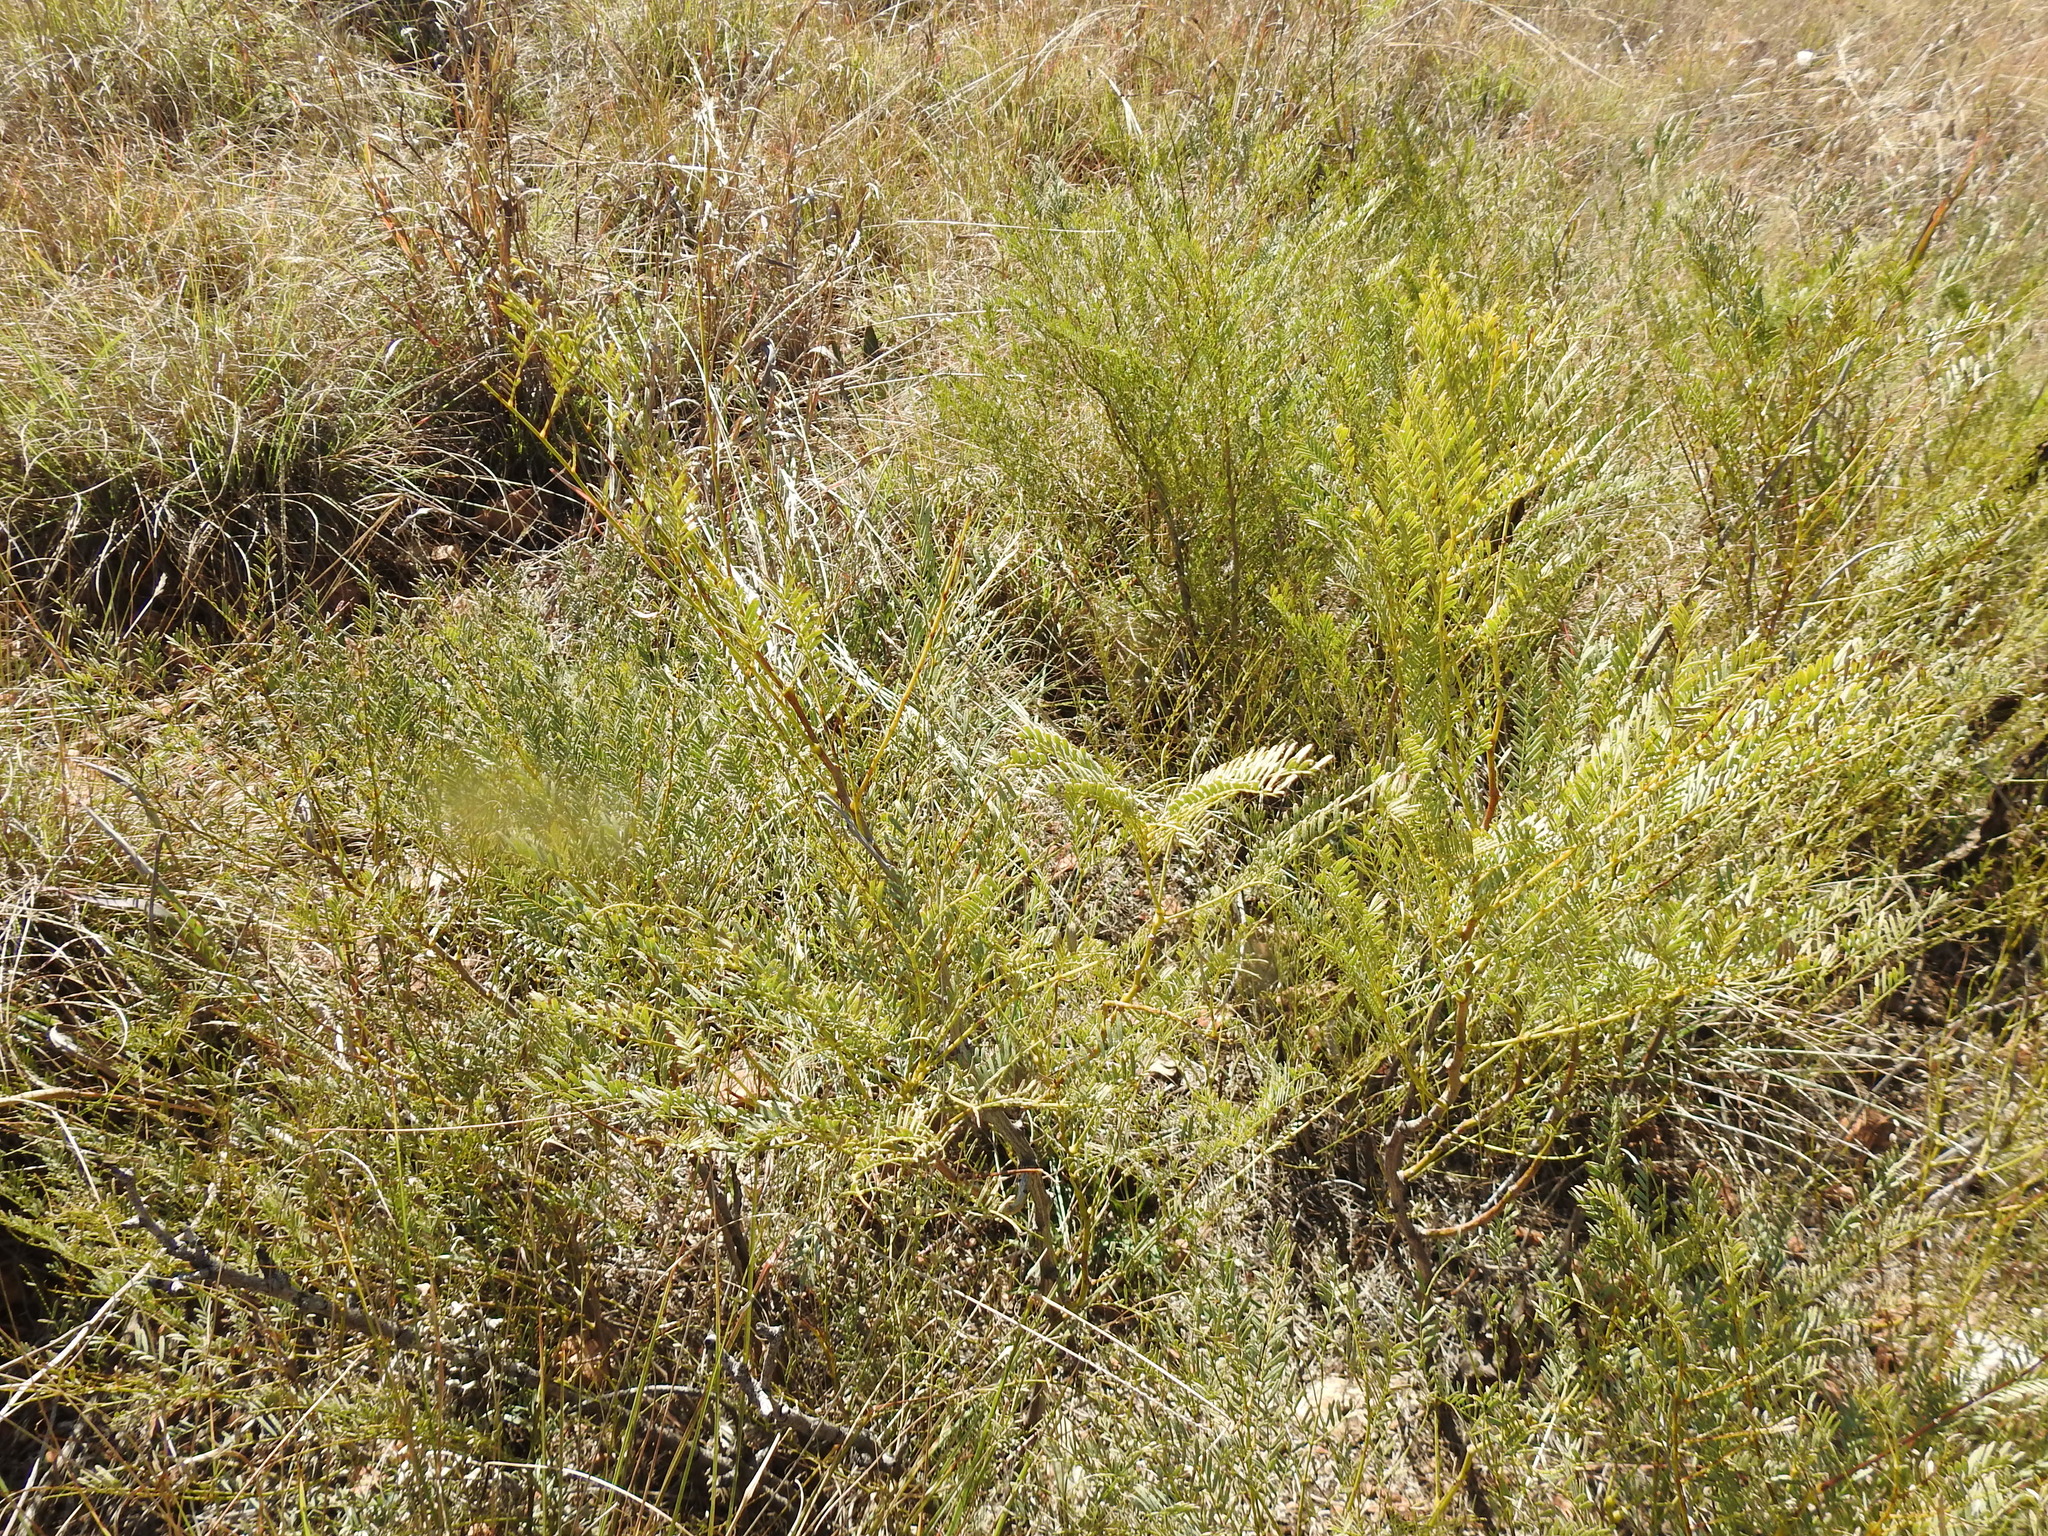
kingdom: Plantae
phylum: Tracheophyta
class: Magnoliopsida
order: Fabales
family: Fabaceae
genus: Elephantorrhiza
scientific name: Elephantorrhiza elephantina
